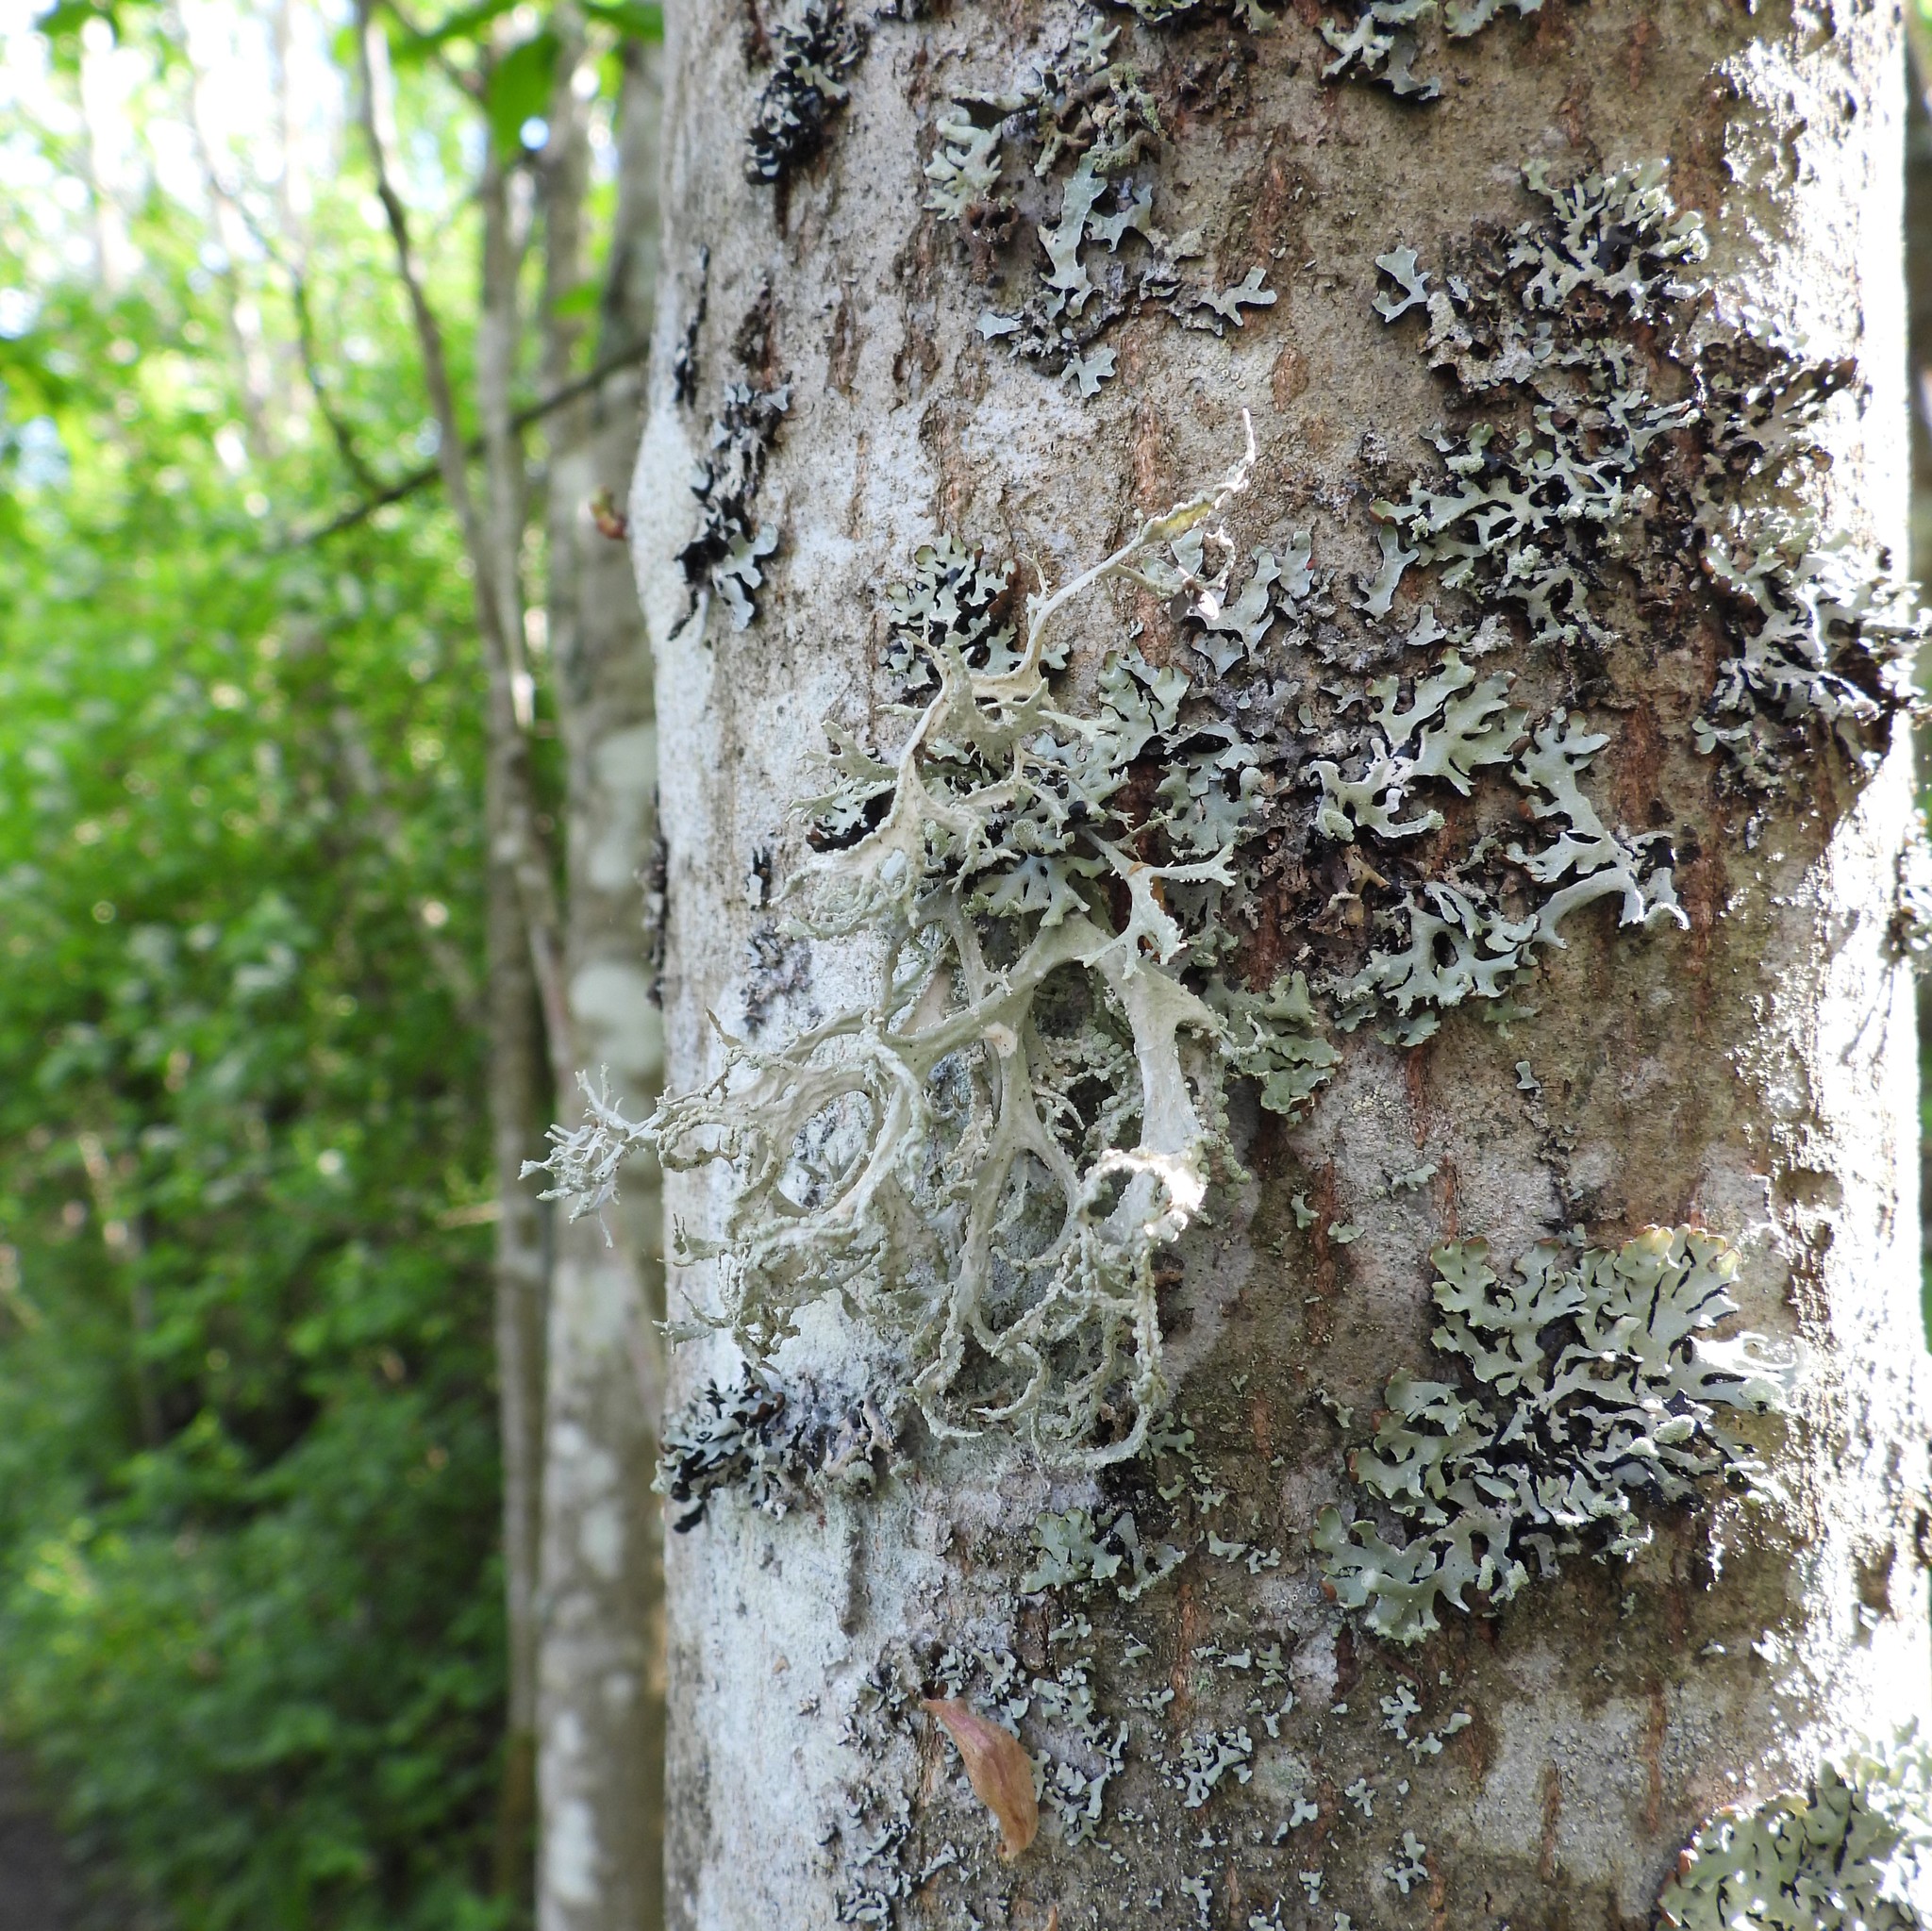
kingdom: Fungi
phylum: Ascomycota
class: Lecanoromycetes
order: Lecanorales
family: Parmeliaceae
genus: Evernia
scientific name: Evernia prunastri
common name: Oak moss
